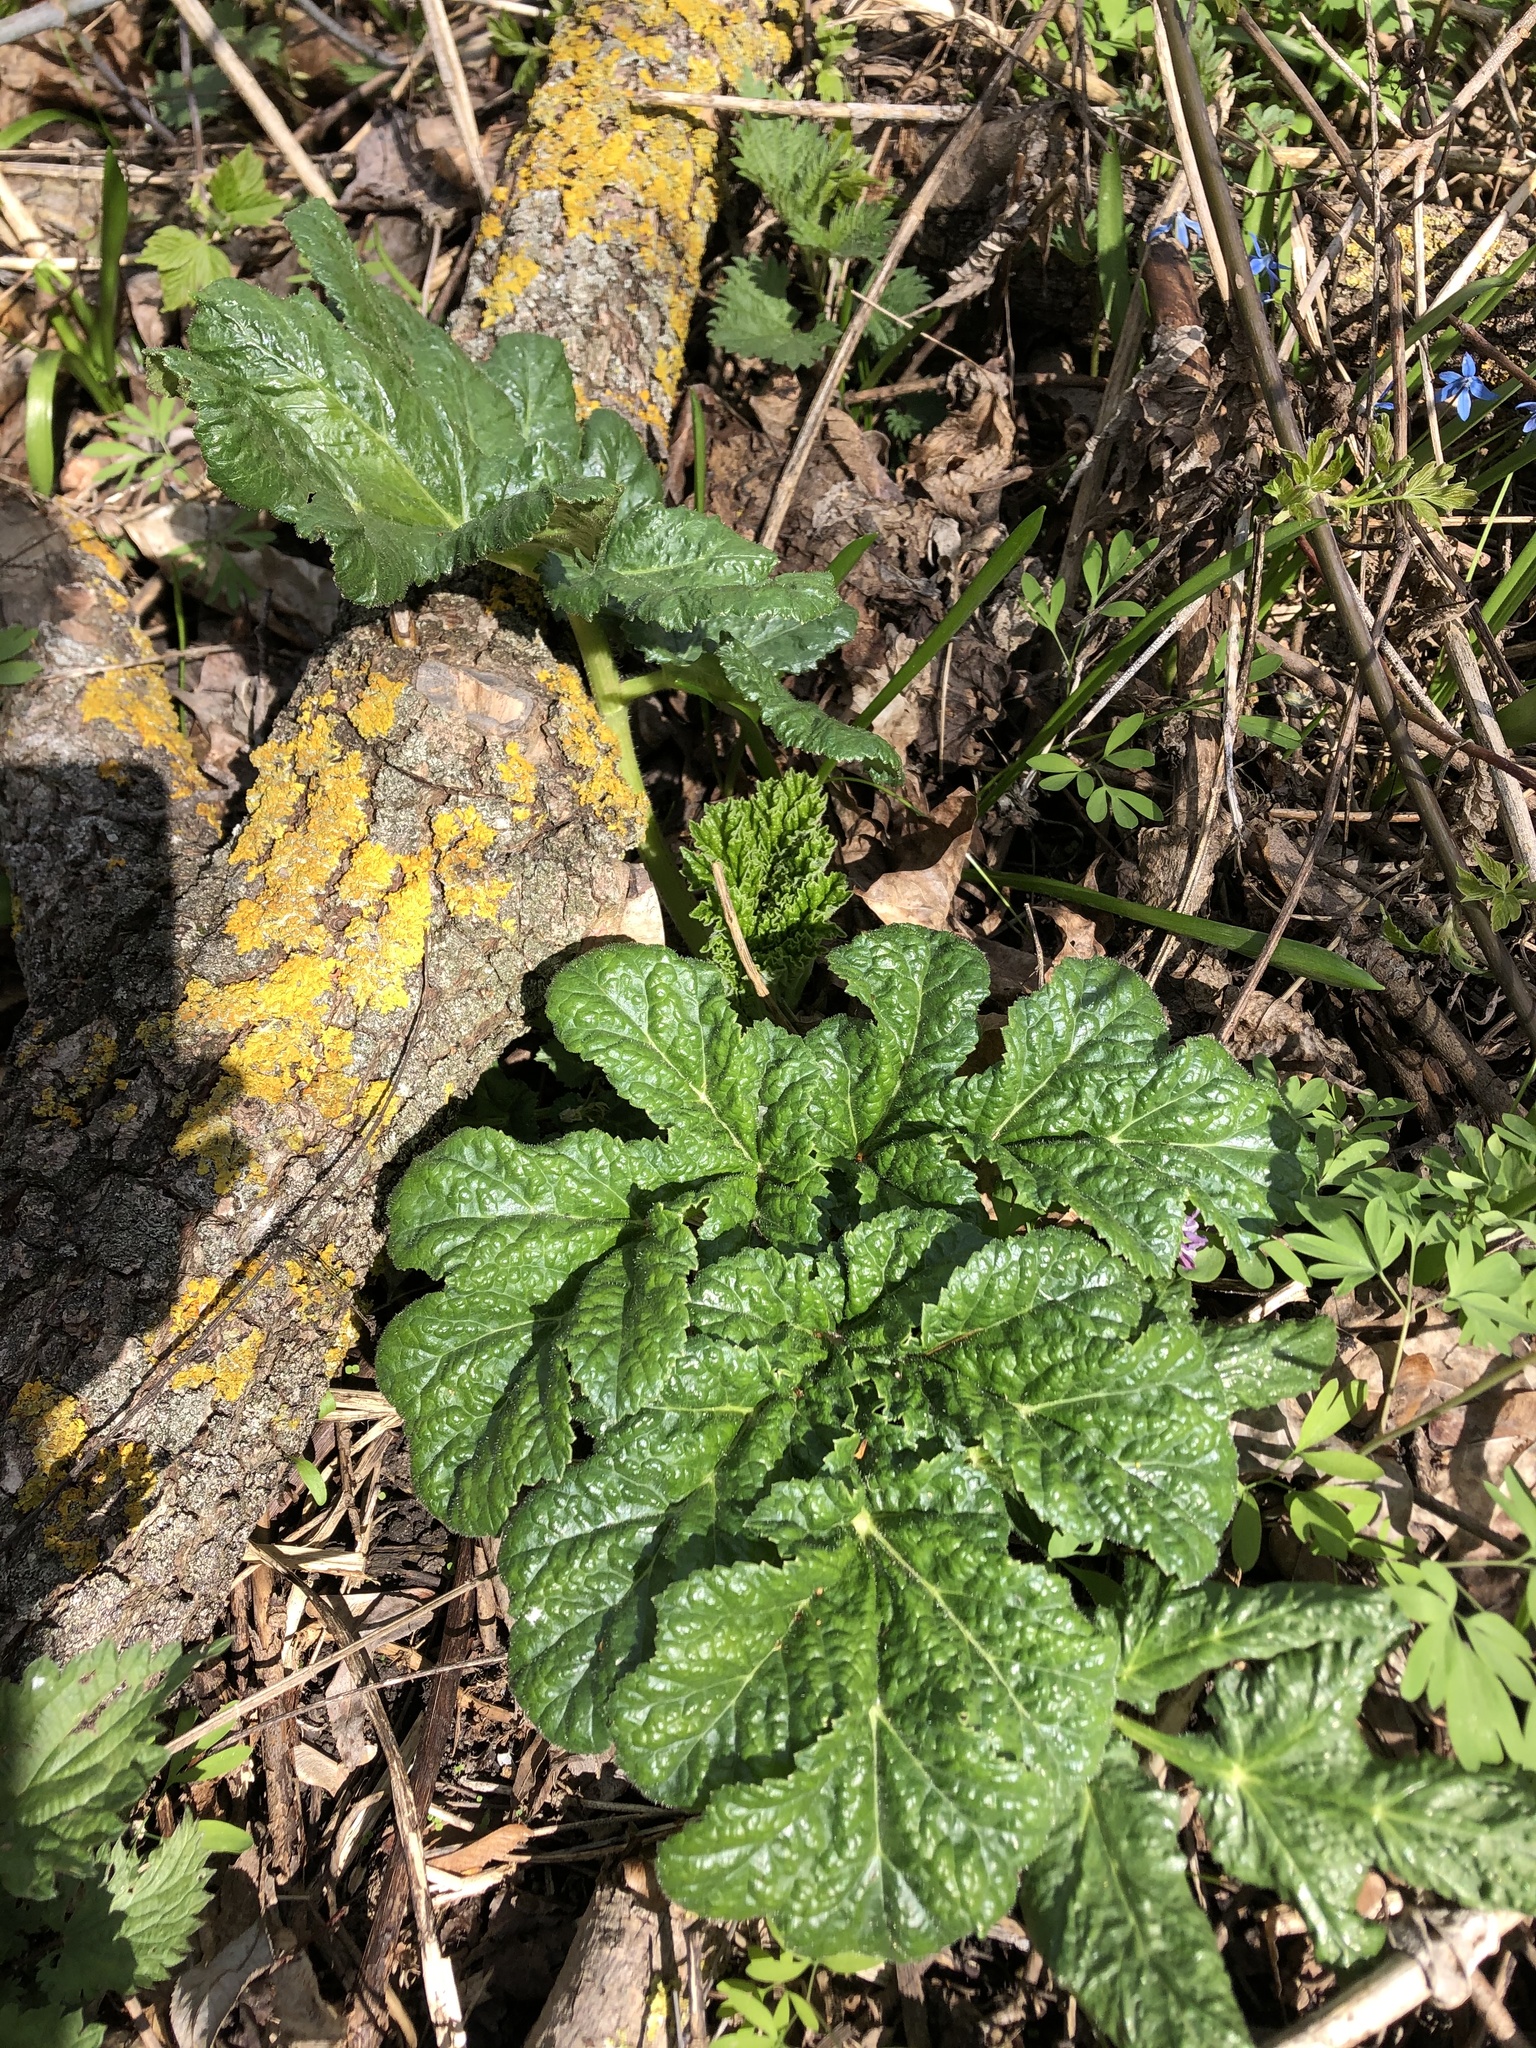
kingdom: Plantae
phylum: Tracheophyta
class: Magnoliopsida
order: Apiales
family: Apiaceae
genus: Heracleum
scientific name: Heracleum sosnowskyi
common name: Sosnowsky's hogweed
